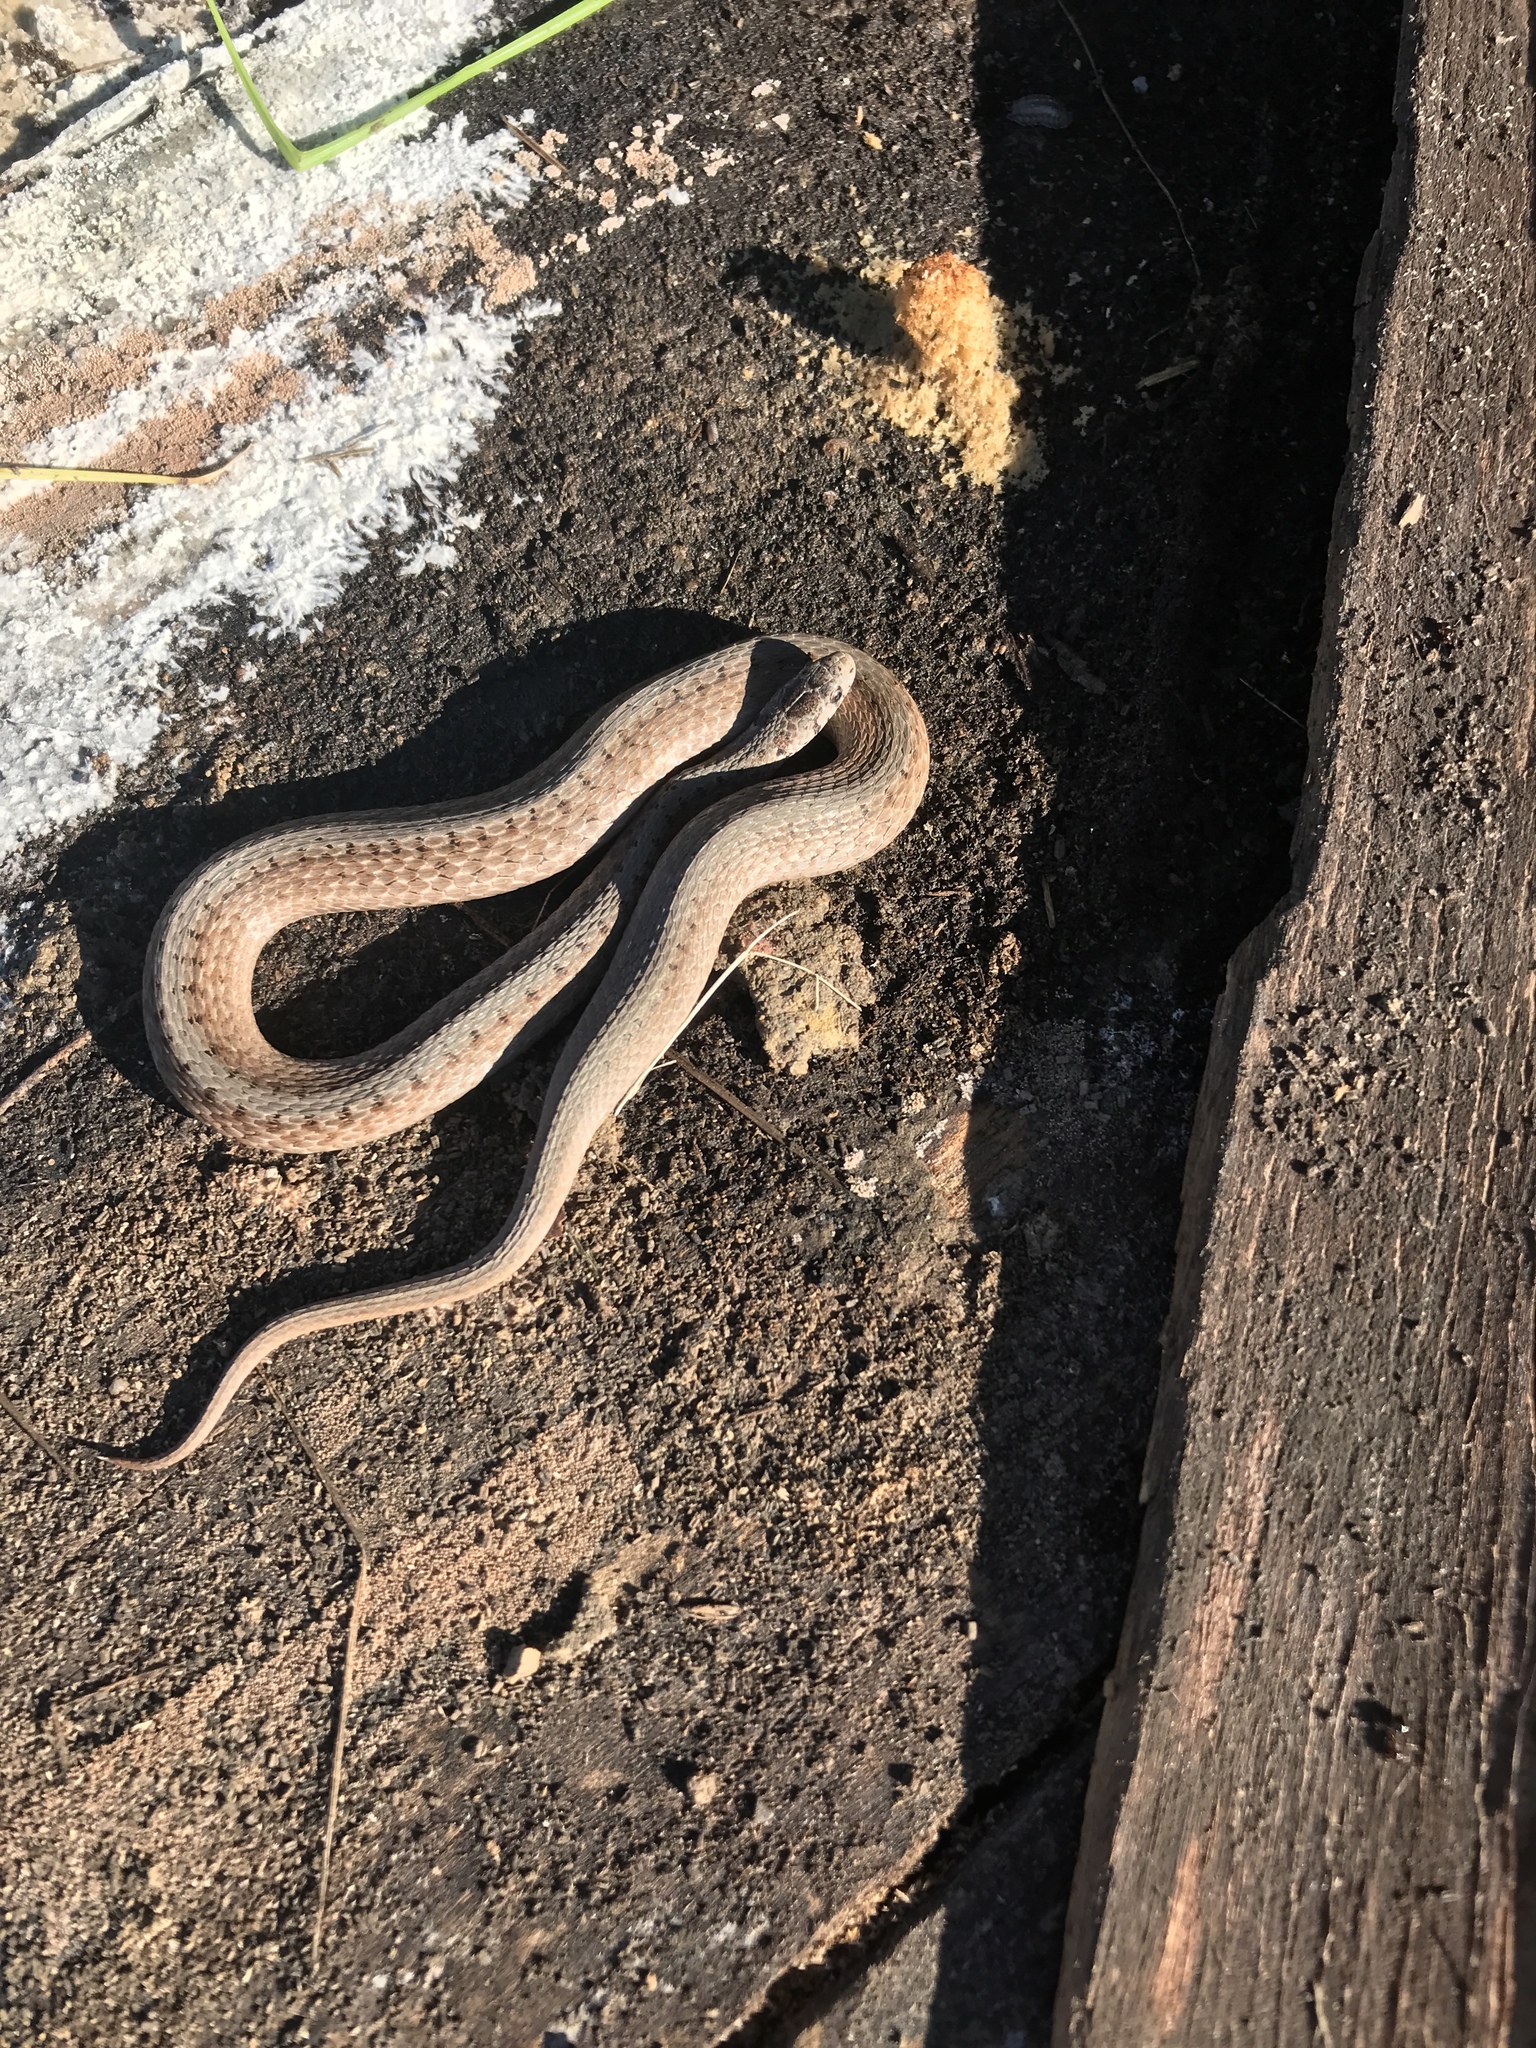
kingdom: Animalia
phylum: Chordata
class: Squamata
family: Colubridae
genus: Storeria
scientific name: Storeria dekayi
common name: (dekay’s) brown snake
